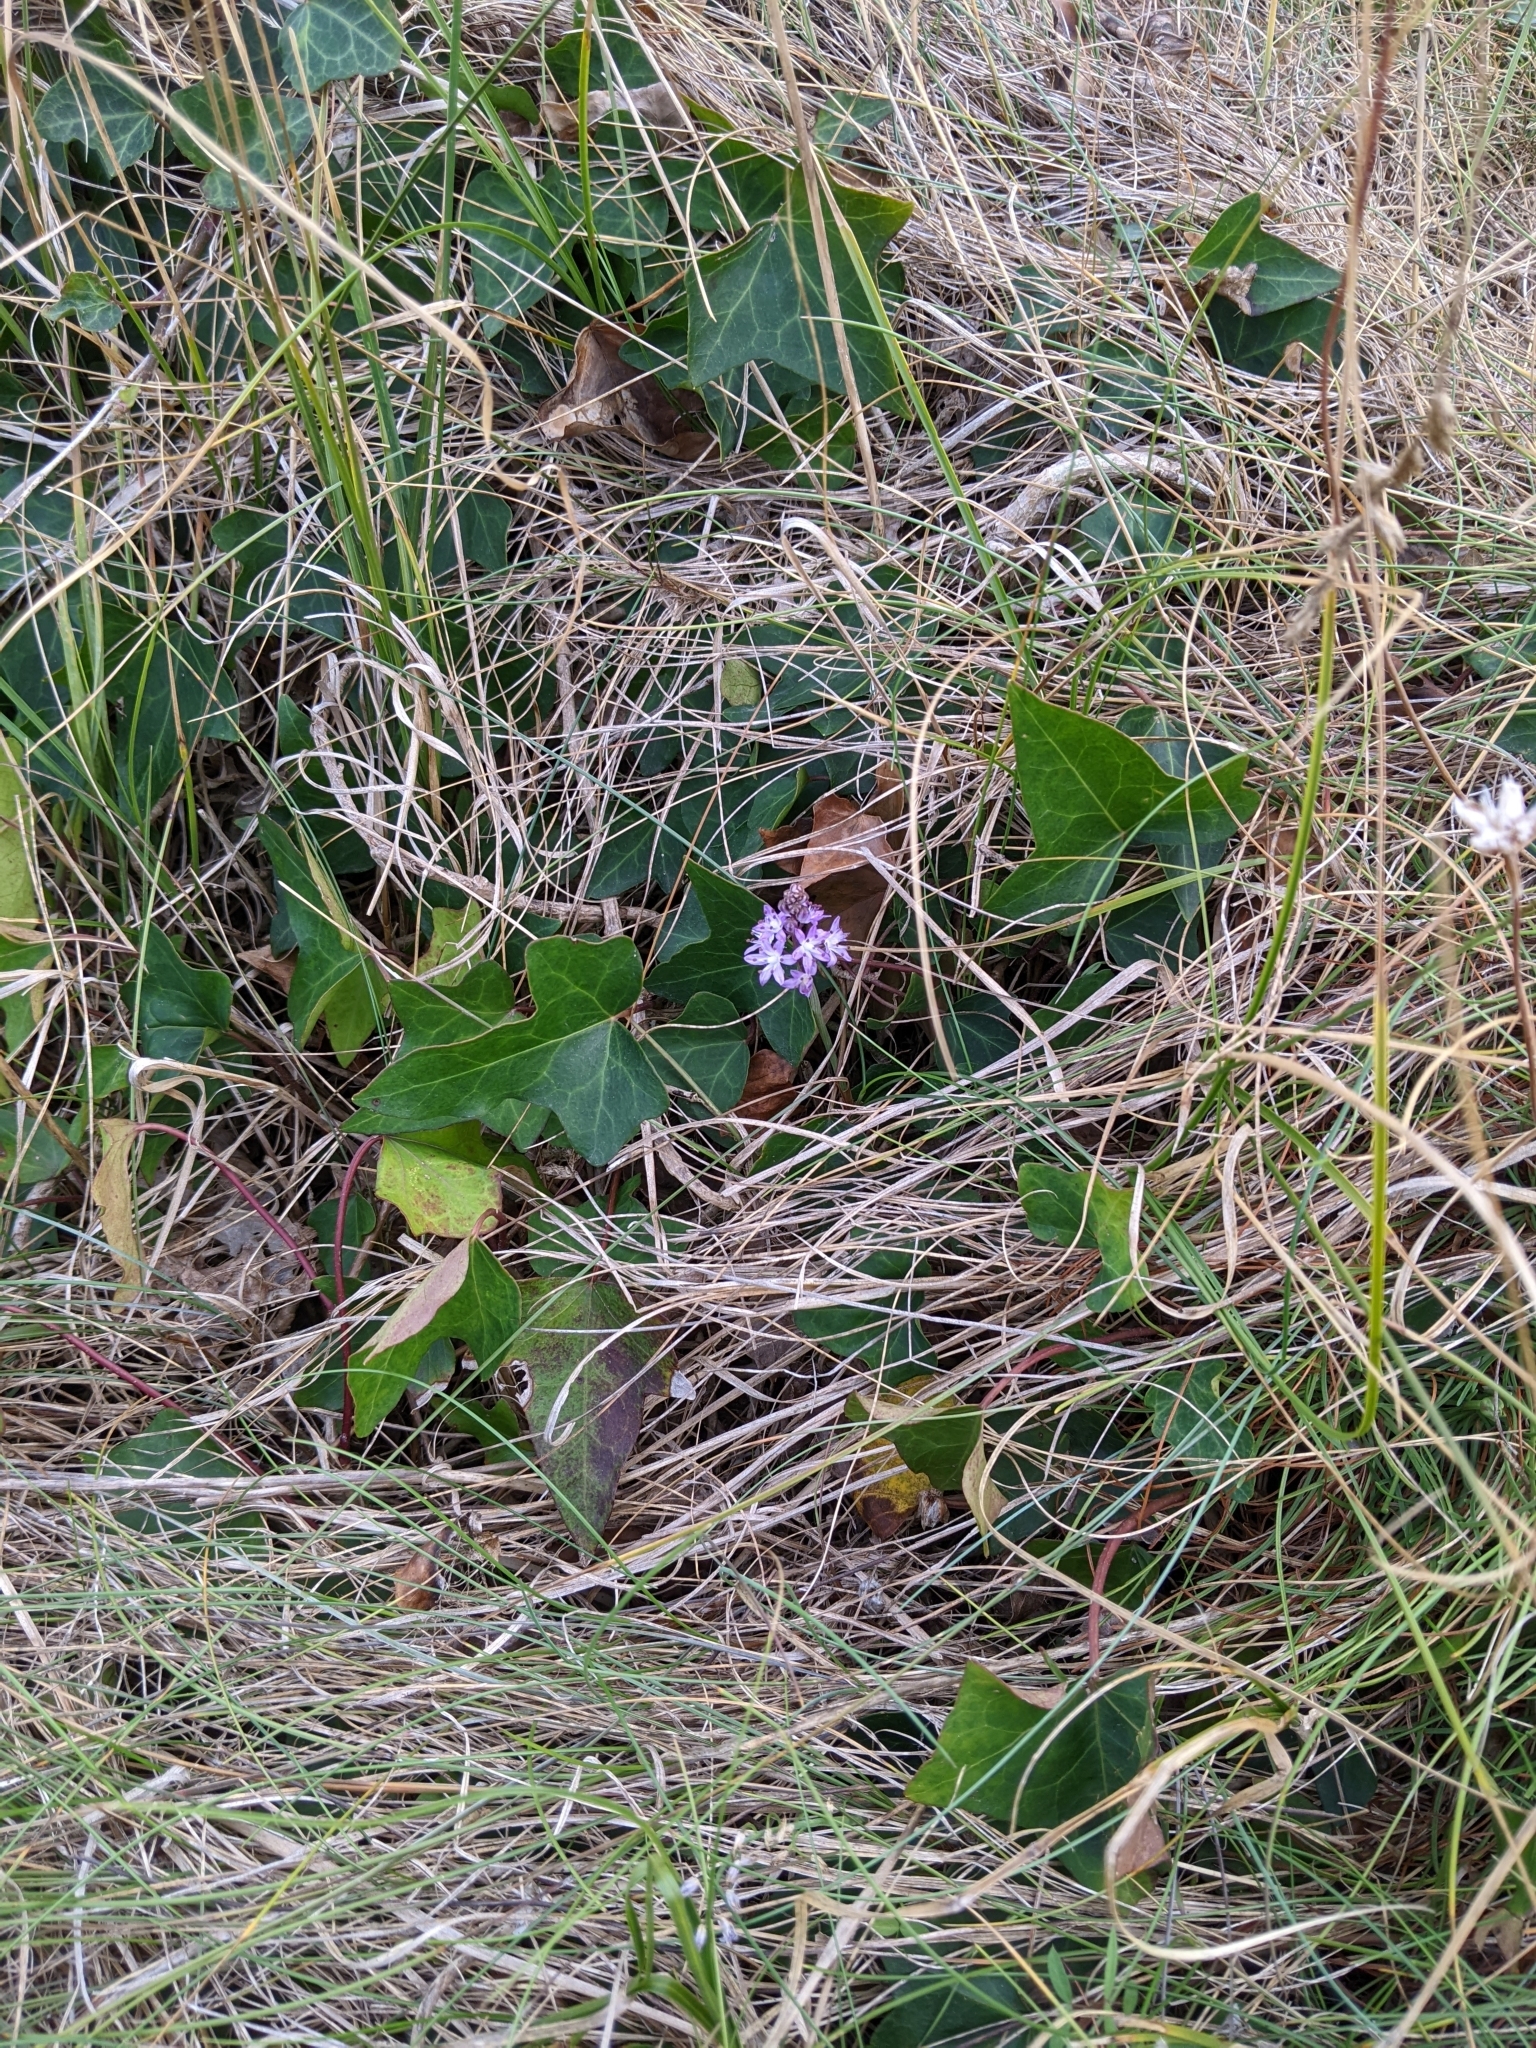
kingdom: Plantae
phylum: Tracheophyta
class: Liliopsida
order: Asparagales
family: Asparagaceae
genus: Prospero
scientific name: Prospero autumnale
